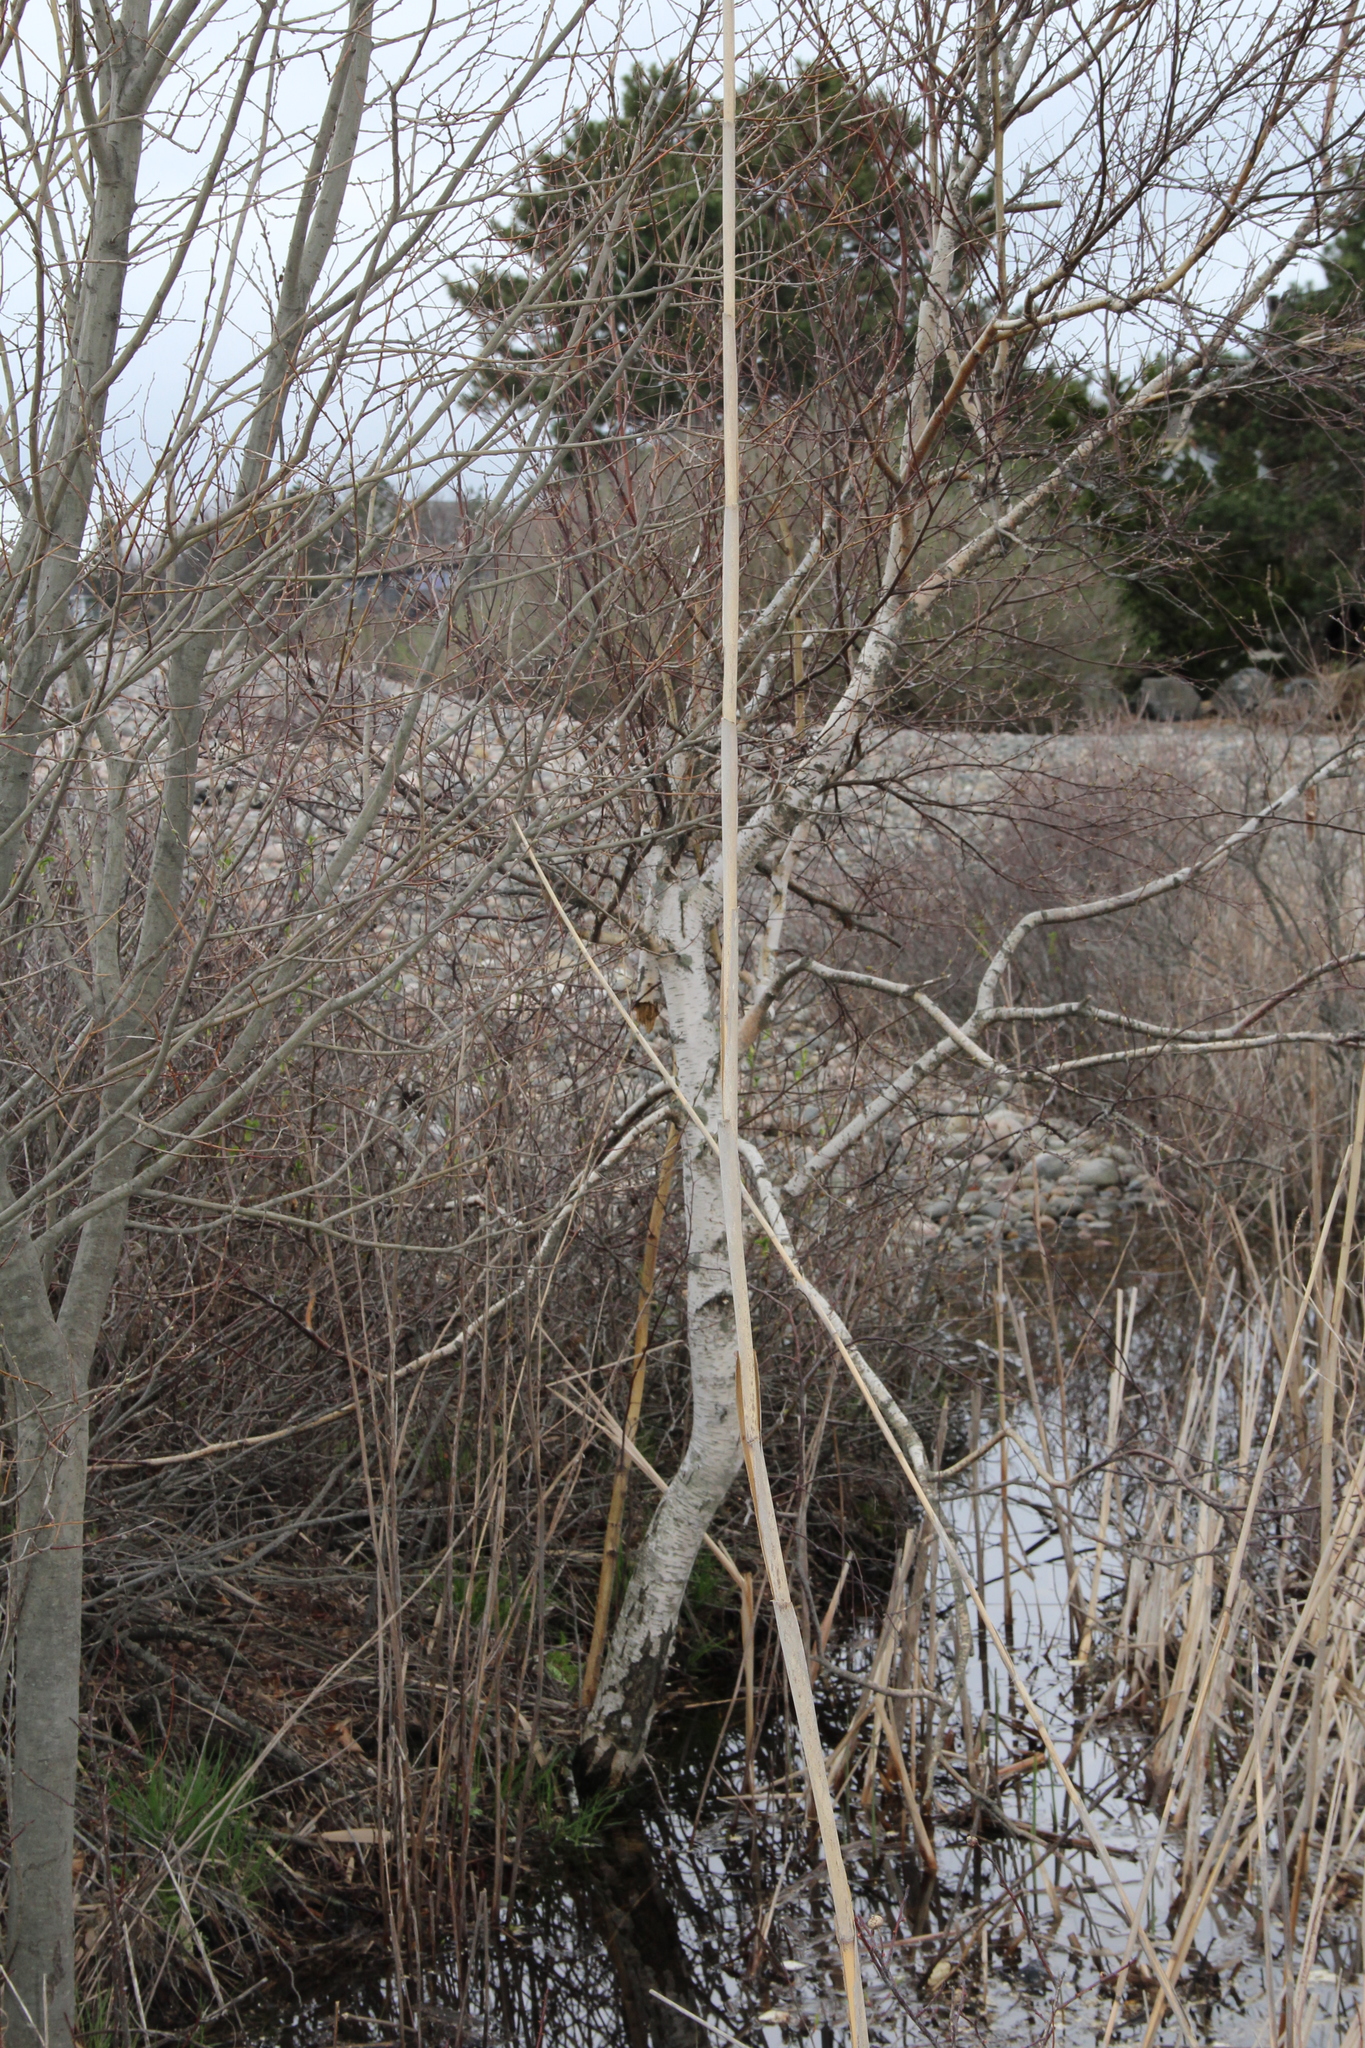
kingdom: Plantae
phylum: Tracheophyta
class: Magnoliopsida
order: Fagales
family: Betulaceae
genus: Betula
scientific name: Betula papyrifera
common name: Paper birch
